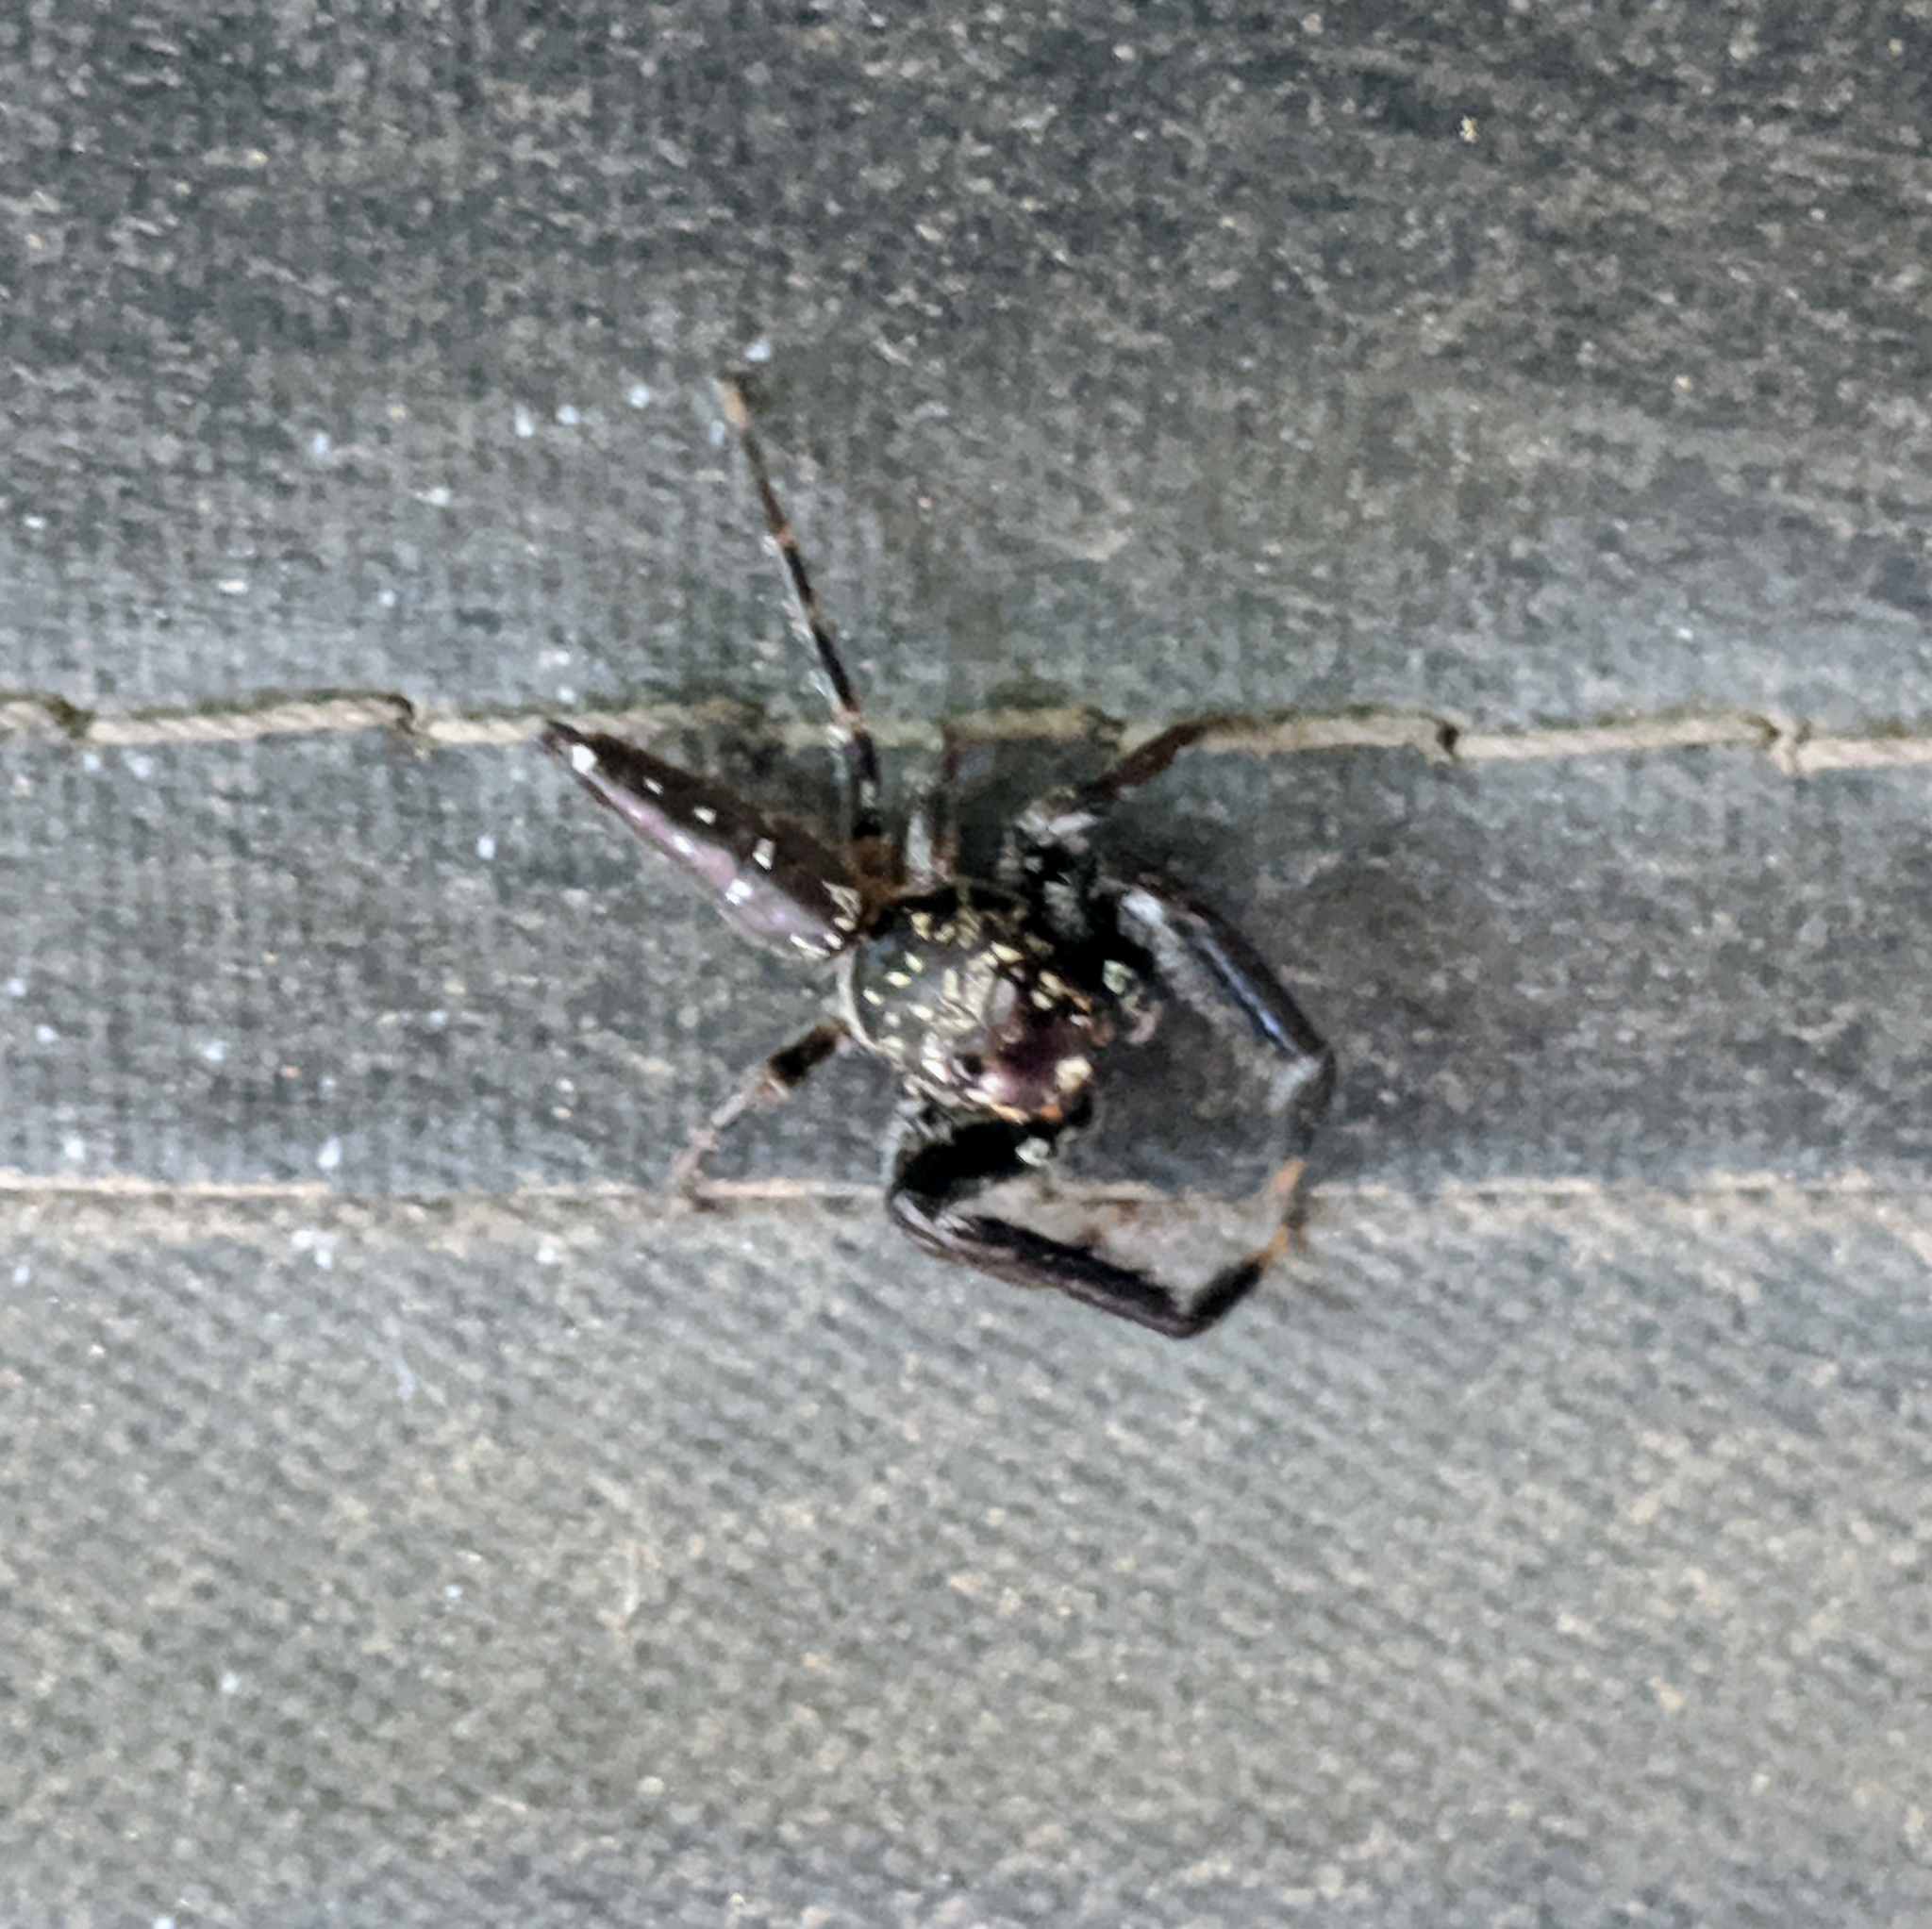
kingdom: Animalia
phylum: Arthropoda
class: Arachnida
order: Araneae
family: Salticidae
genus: Bavia
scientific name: Bavia sexpunctata
